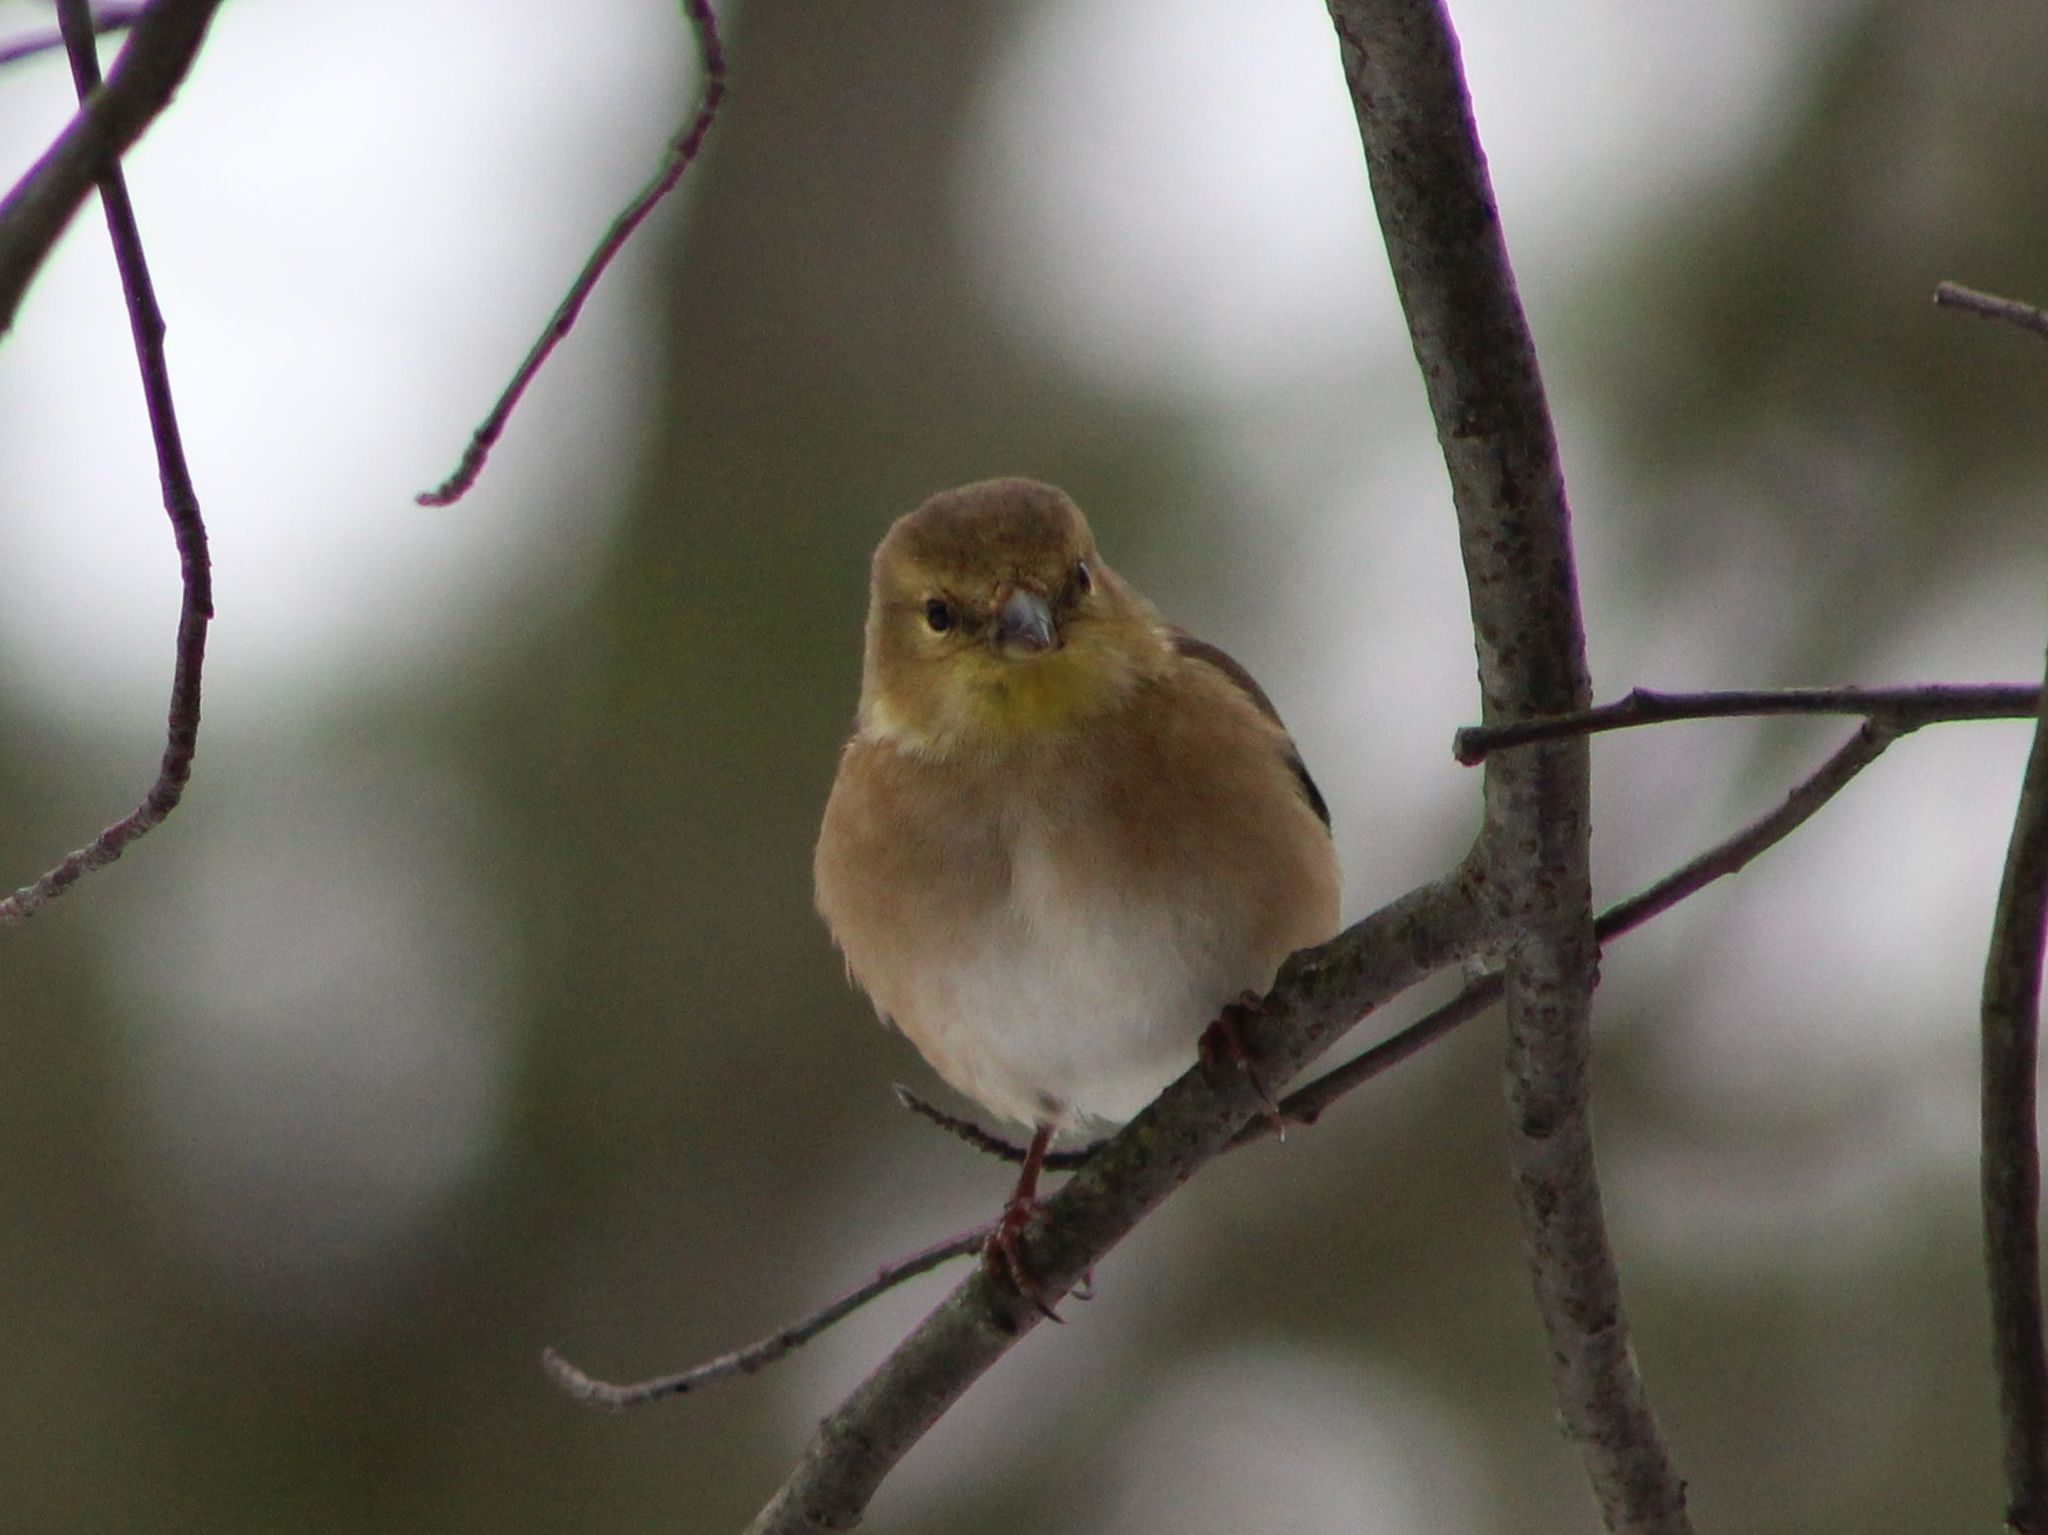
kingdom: Animalia
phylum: Chordata
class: Aves
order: Passeriformes
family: Fringillidae
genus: Spinus
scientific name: Spinus tristis
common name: American goldfinch
